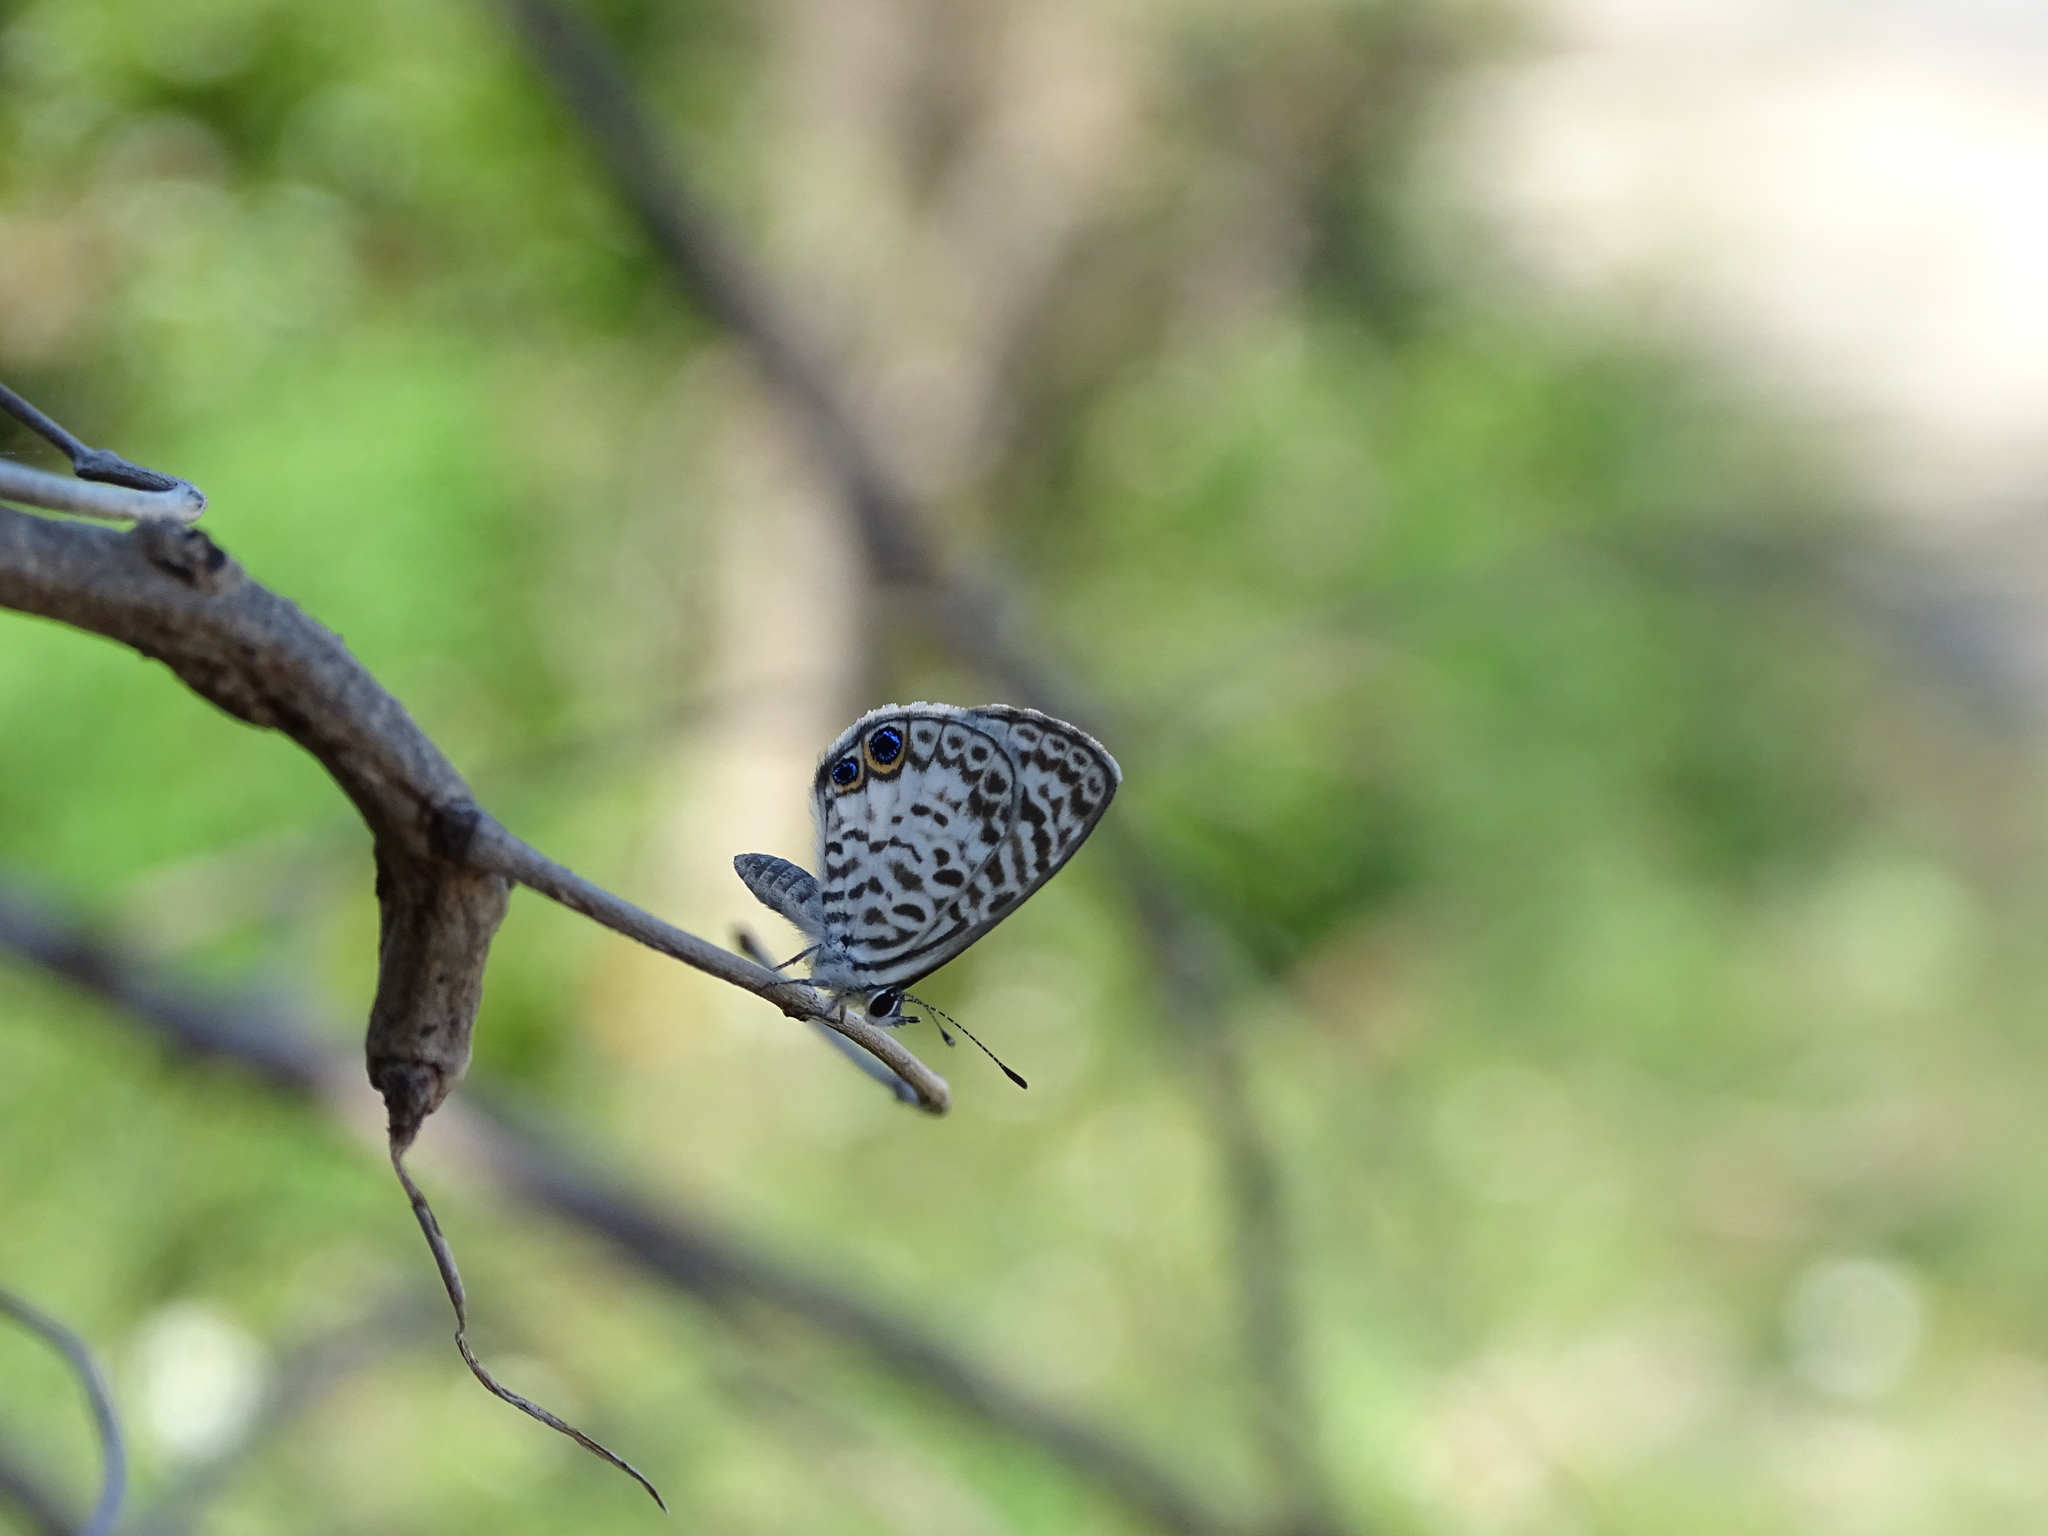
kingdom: Animalia
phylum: Arthropoda
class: Insecta
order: Lepidoptera
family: Lycaenidae
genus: Leptotes
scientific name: Leptotes cassius
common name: Cassius blue
